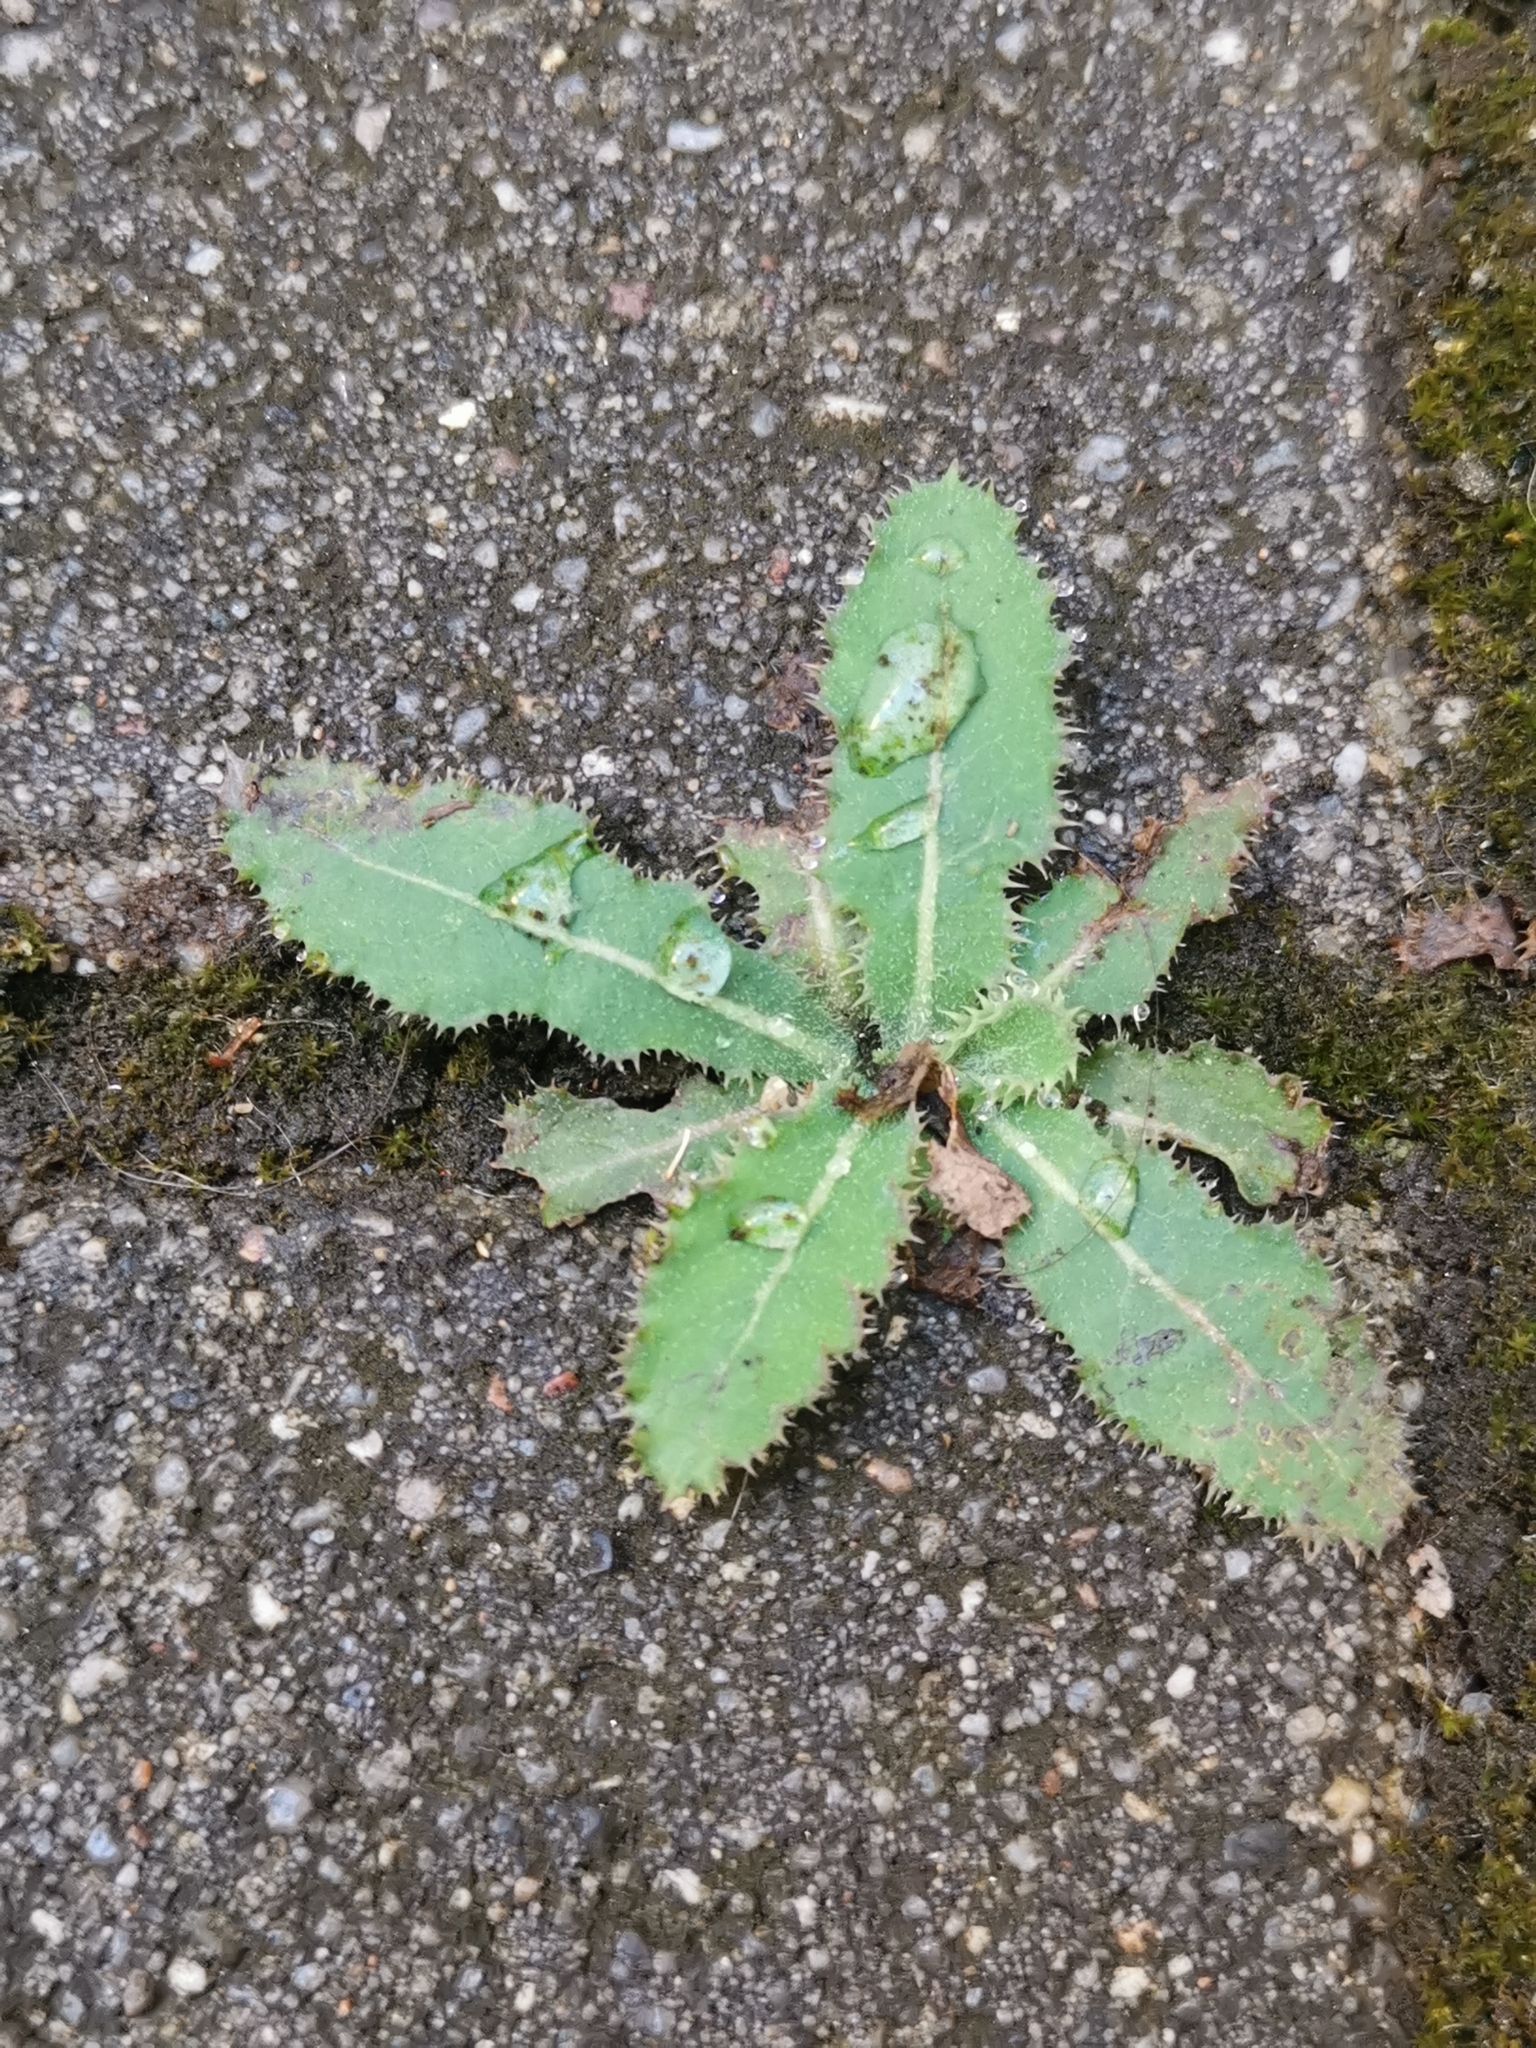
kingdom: Plantae
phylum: Tracheophyta
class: Magnoliopsida
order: Asterales
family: Asteraceae
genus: Sonchus
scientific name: Sonchus asper
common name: Prickly sow-thistle
